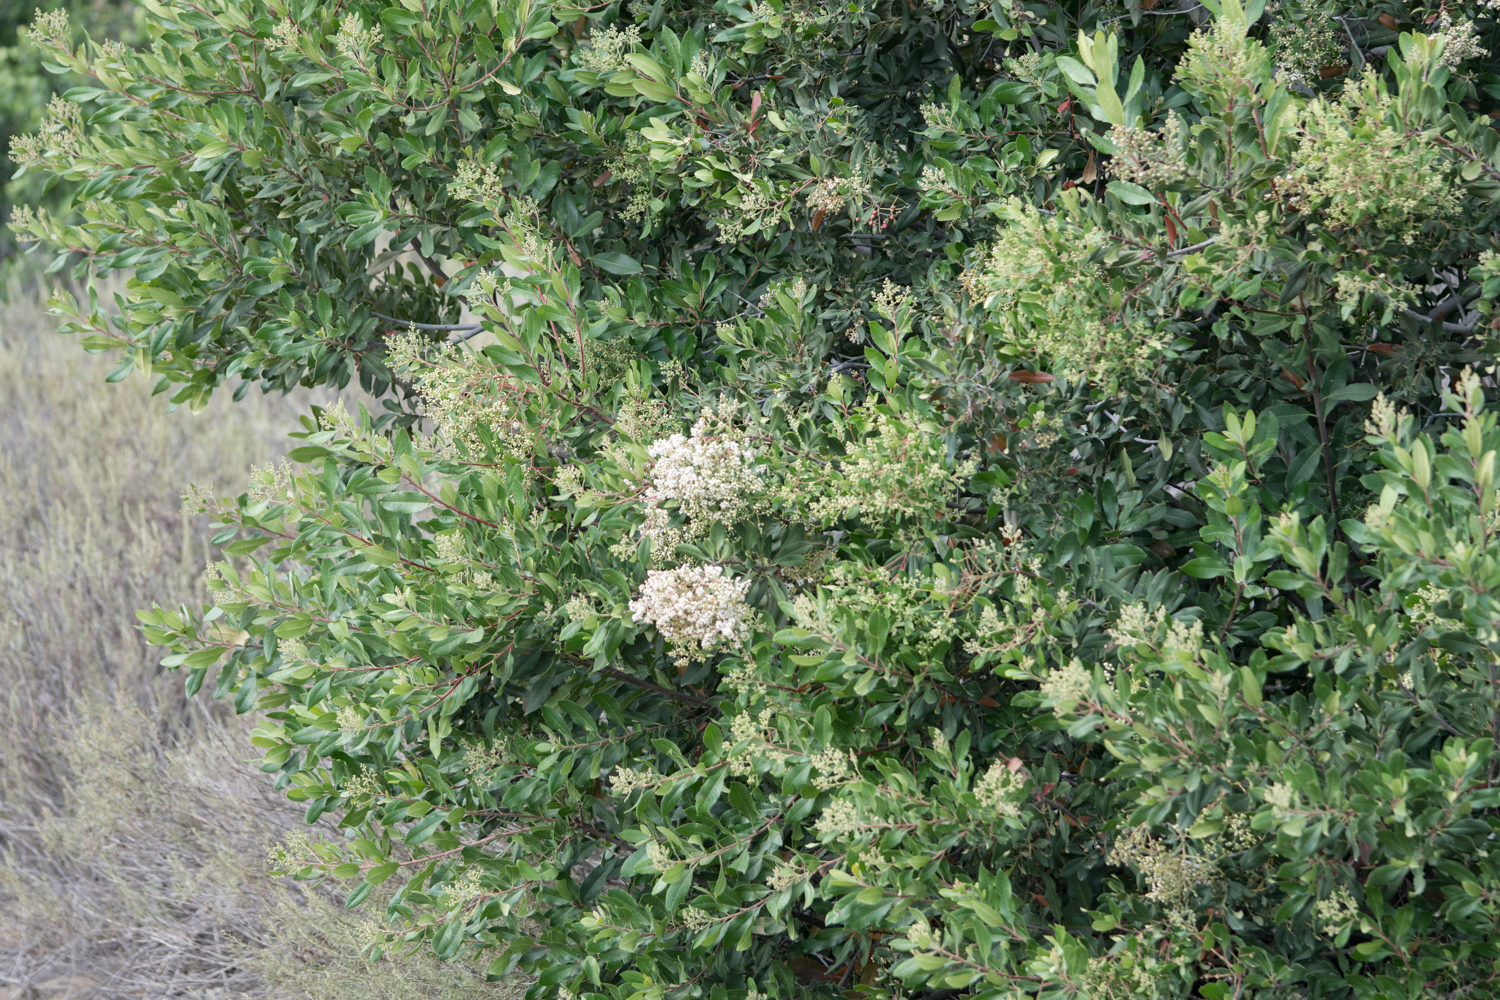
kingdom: Plantae
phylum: Tracheophyta
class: Magnoliopsida
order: Rosales
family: Rosaceae
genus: Heteromeles
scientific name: Heteromeles arbutifolia
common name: California-holly
